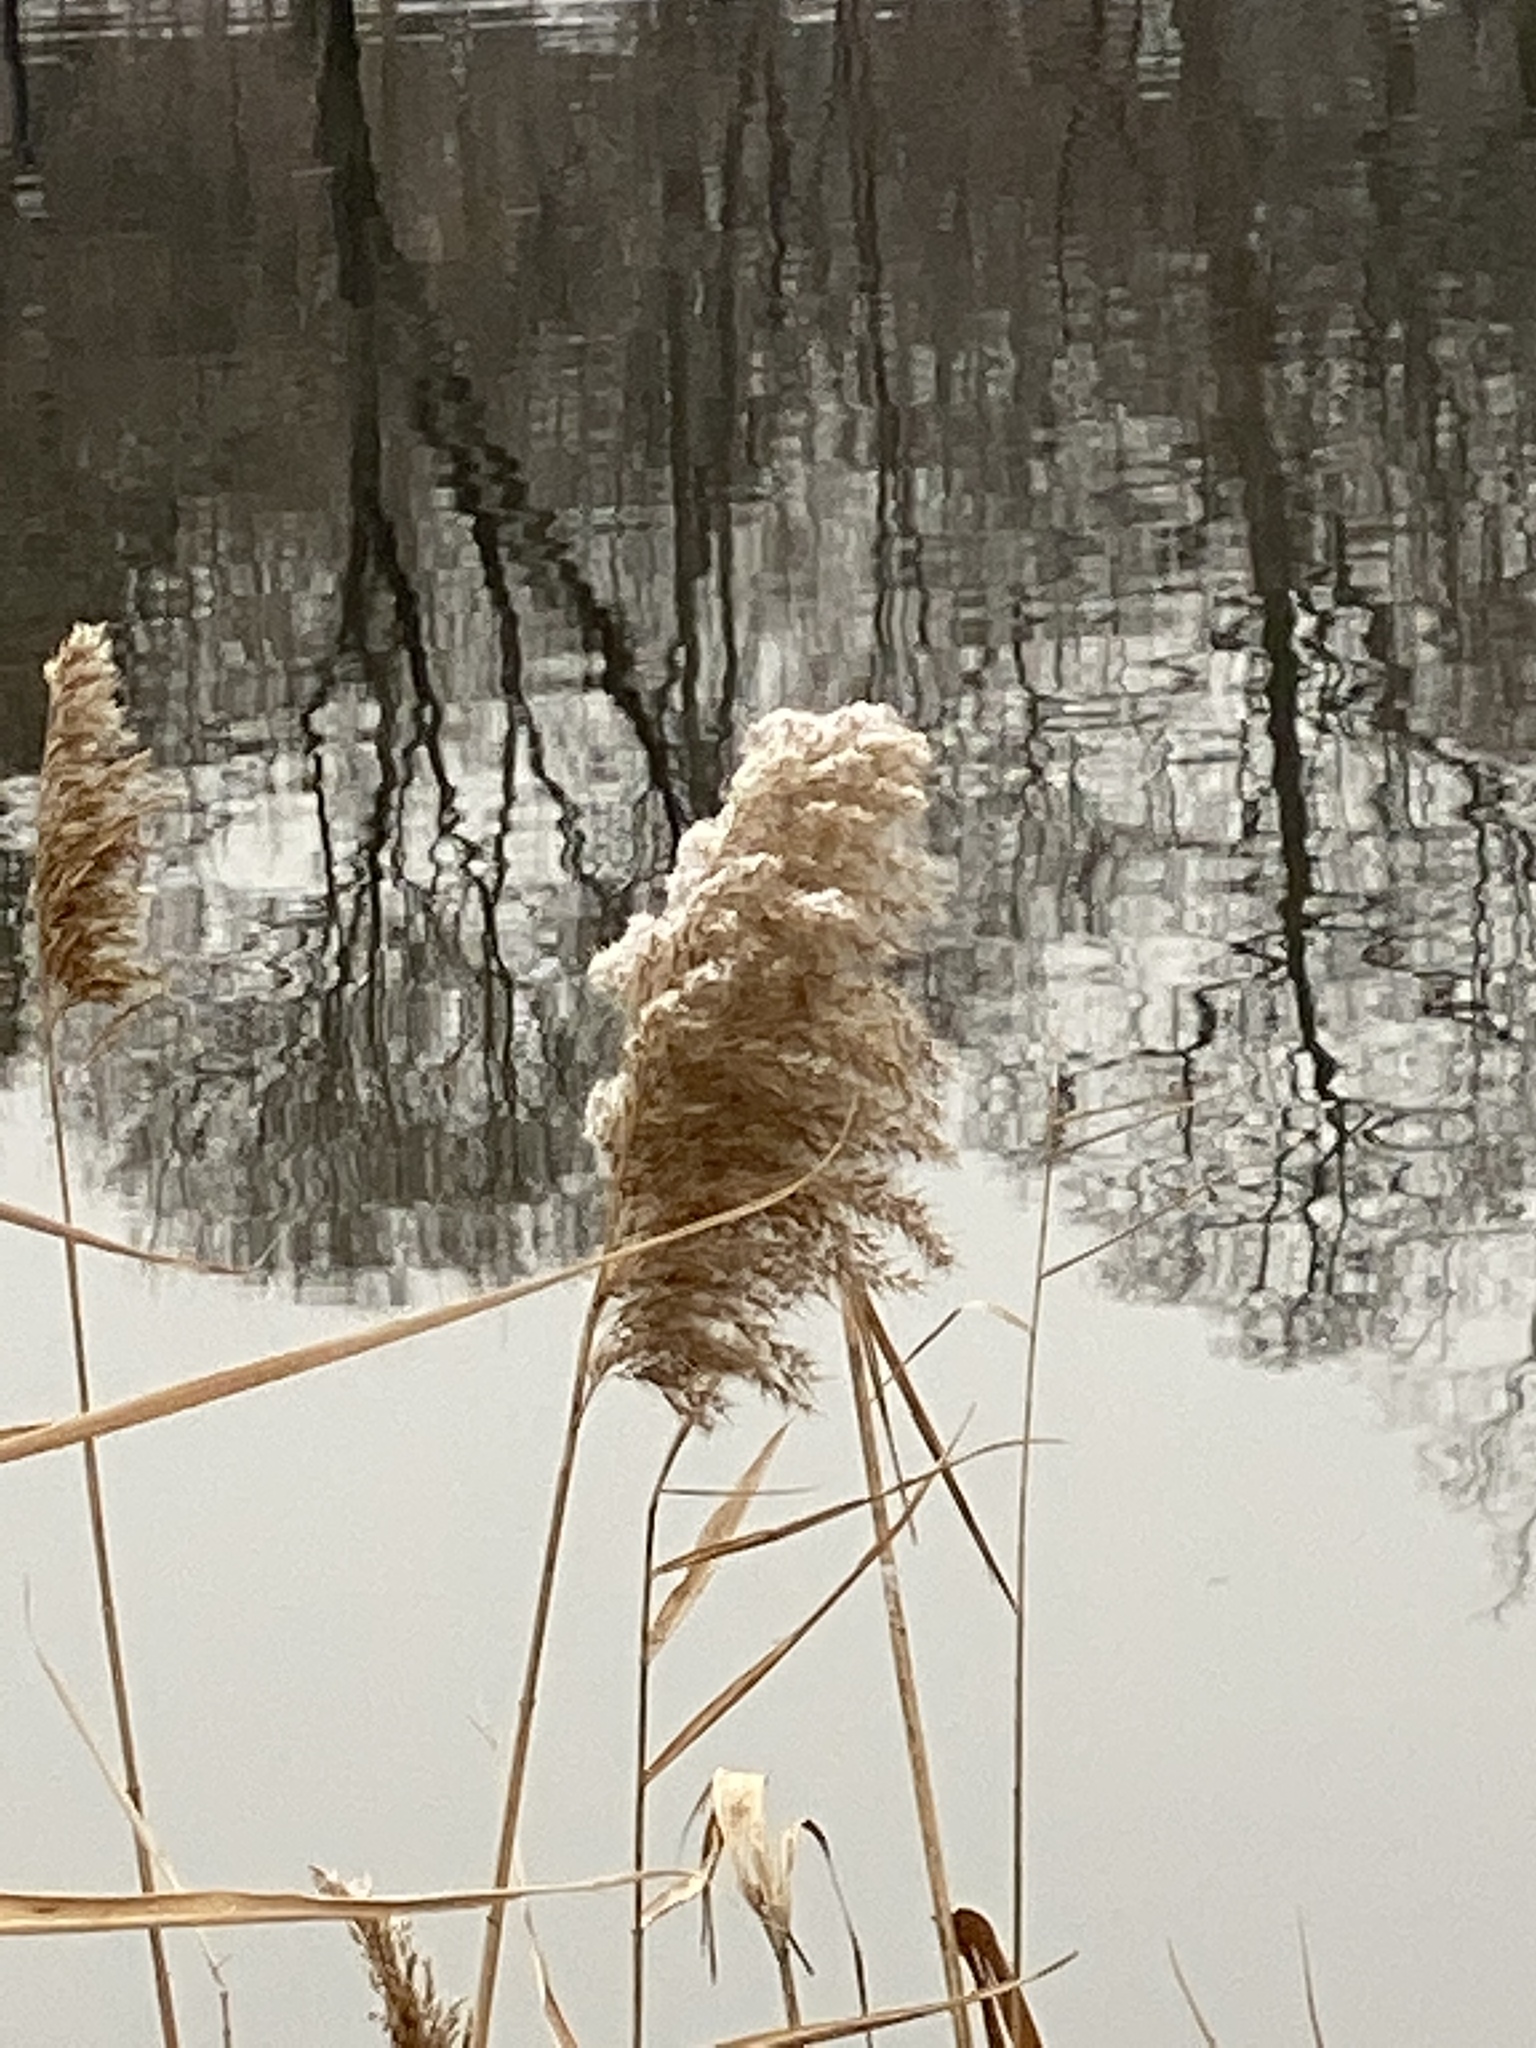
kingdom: Plantae
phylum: Tracheophyta
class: Liliopsida
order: Poales
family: Poaceae
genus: Phragmites
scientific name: Phragmites australis
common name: Common reed
